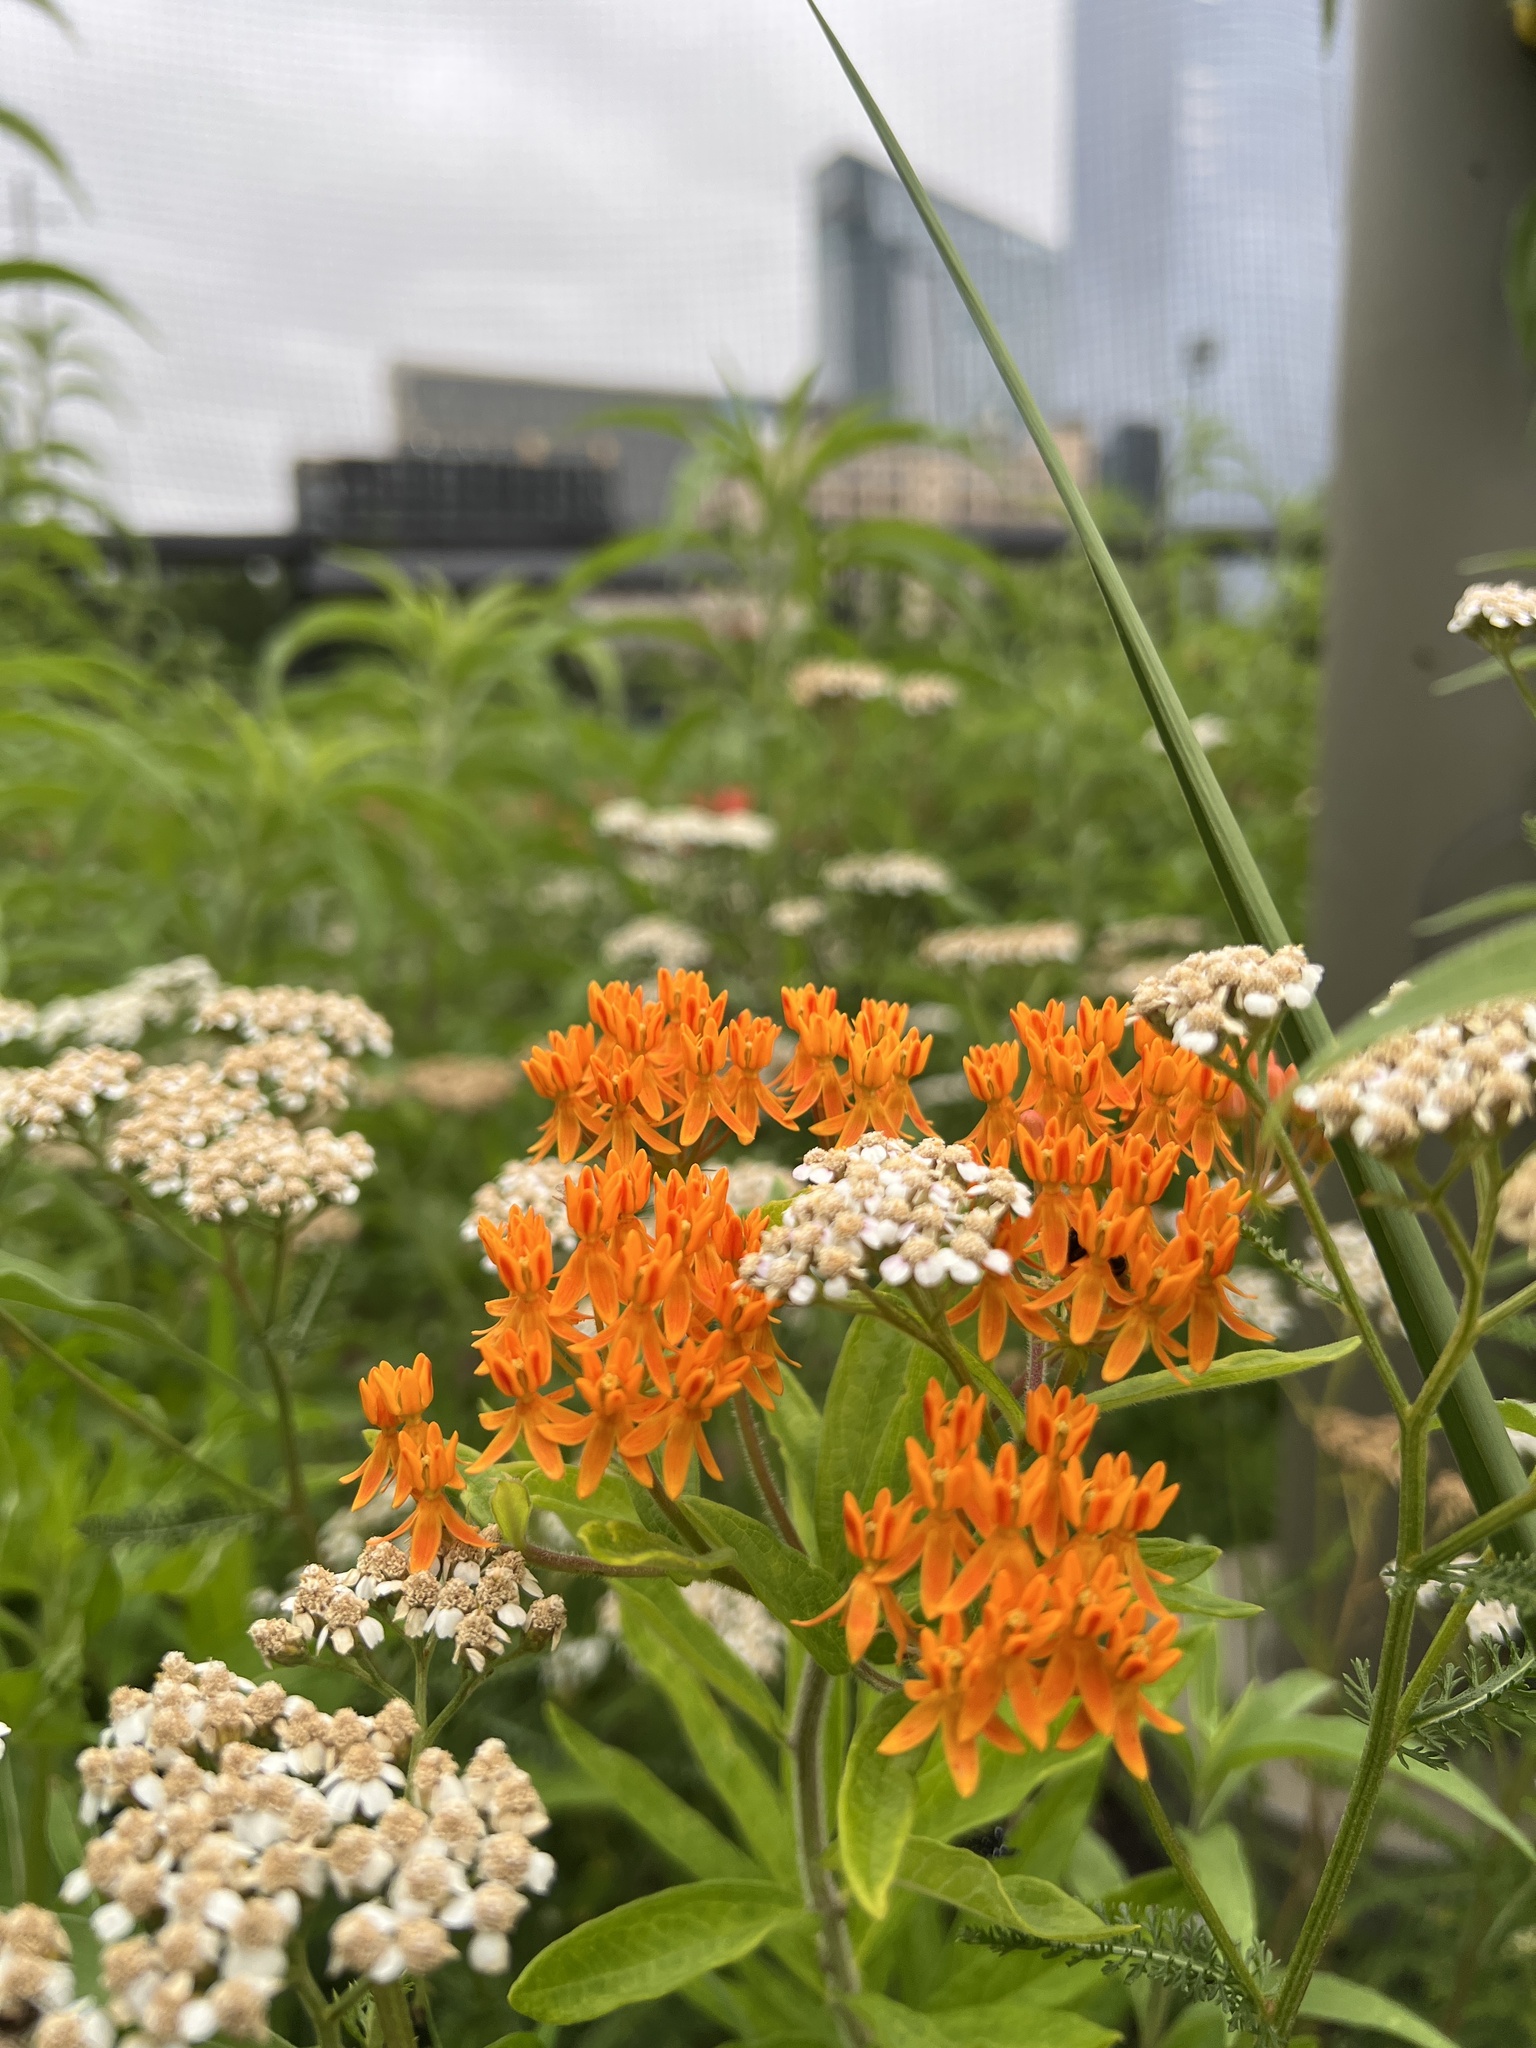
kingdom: Plantae
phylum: Tracheophyta
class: Magnoliopsida
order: Gentianales
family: Apocynaceae
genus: Asclepias
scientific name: Asclepias tuberosa
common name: Butterfly milkweed
